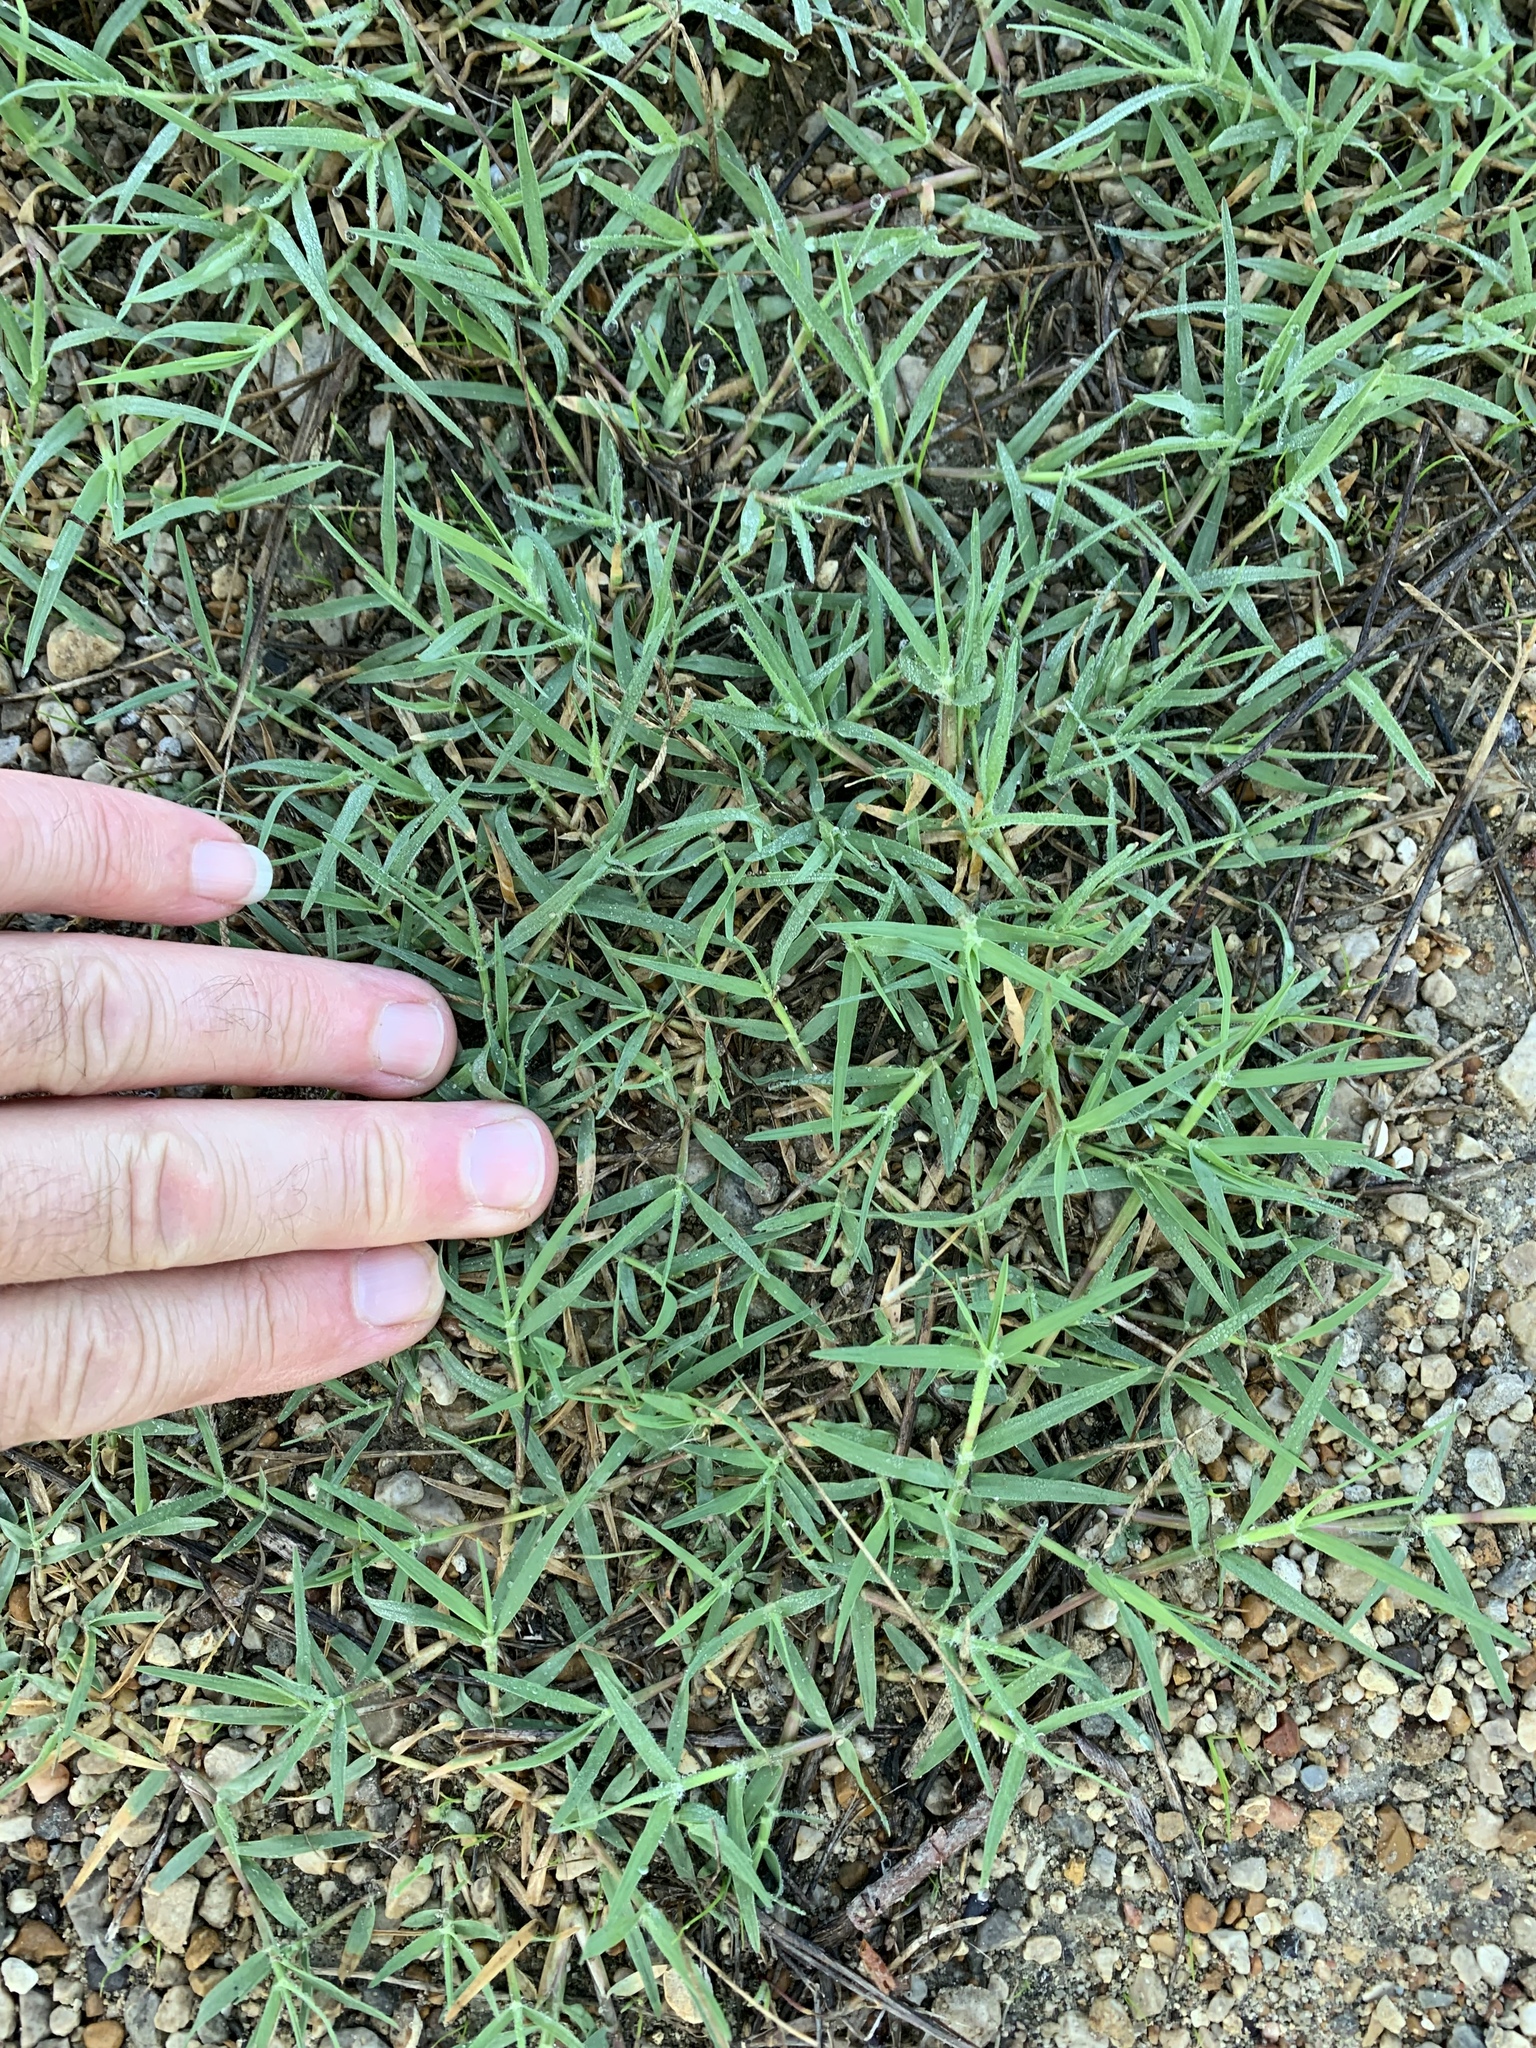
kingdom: Plantae
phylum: Tracheophyta
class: Liliopsida
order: Poales
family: Poaceae
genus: Cynodon
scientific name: Cynodon dactylon
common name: Bermuda grass
